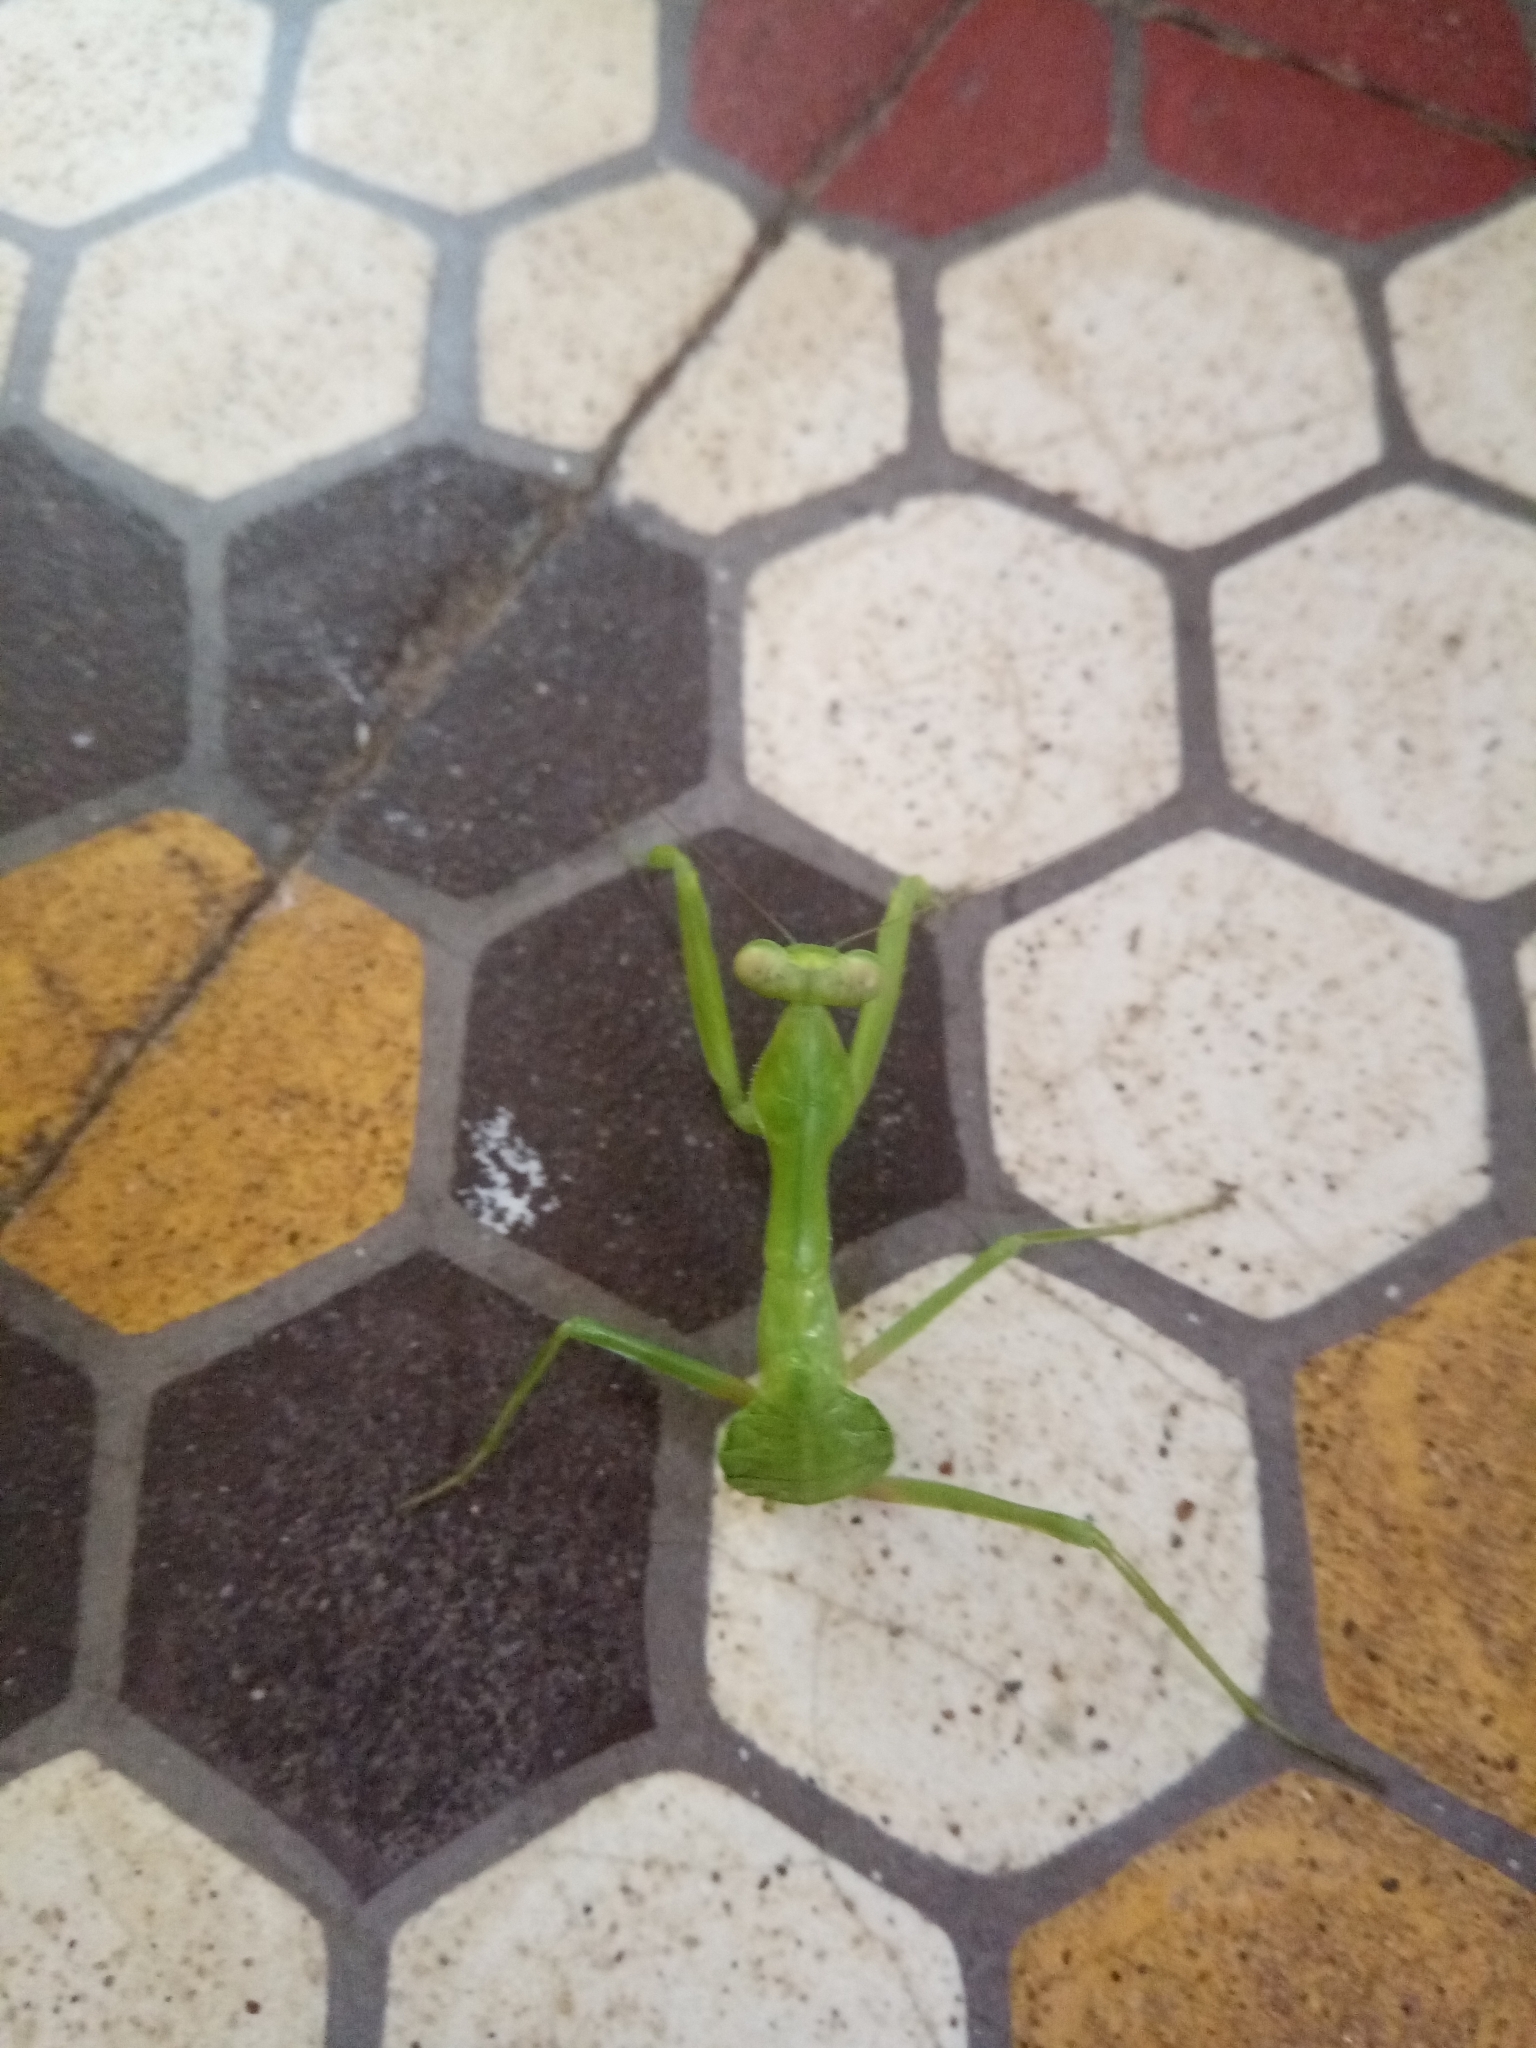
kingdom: Animalia
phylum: Arthropoda
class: Insecta
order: Mantodea
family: Mantidae
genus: Sphodromantis
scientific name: Sphodromantis viridis
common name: Giant african mantis
